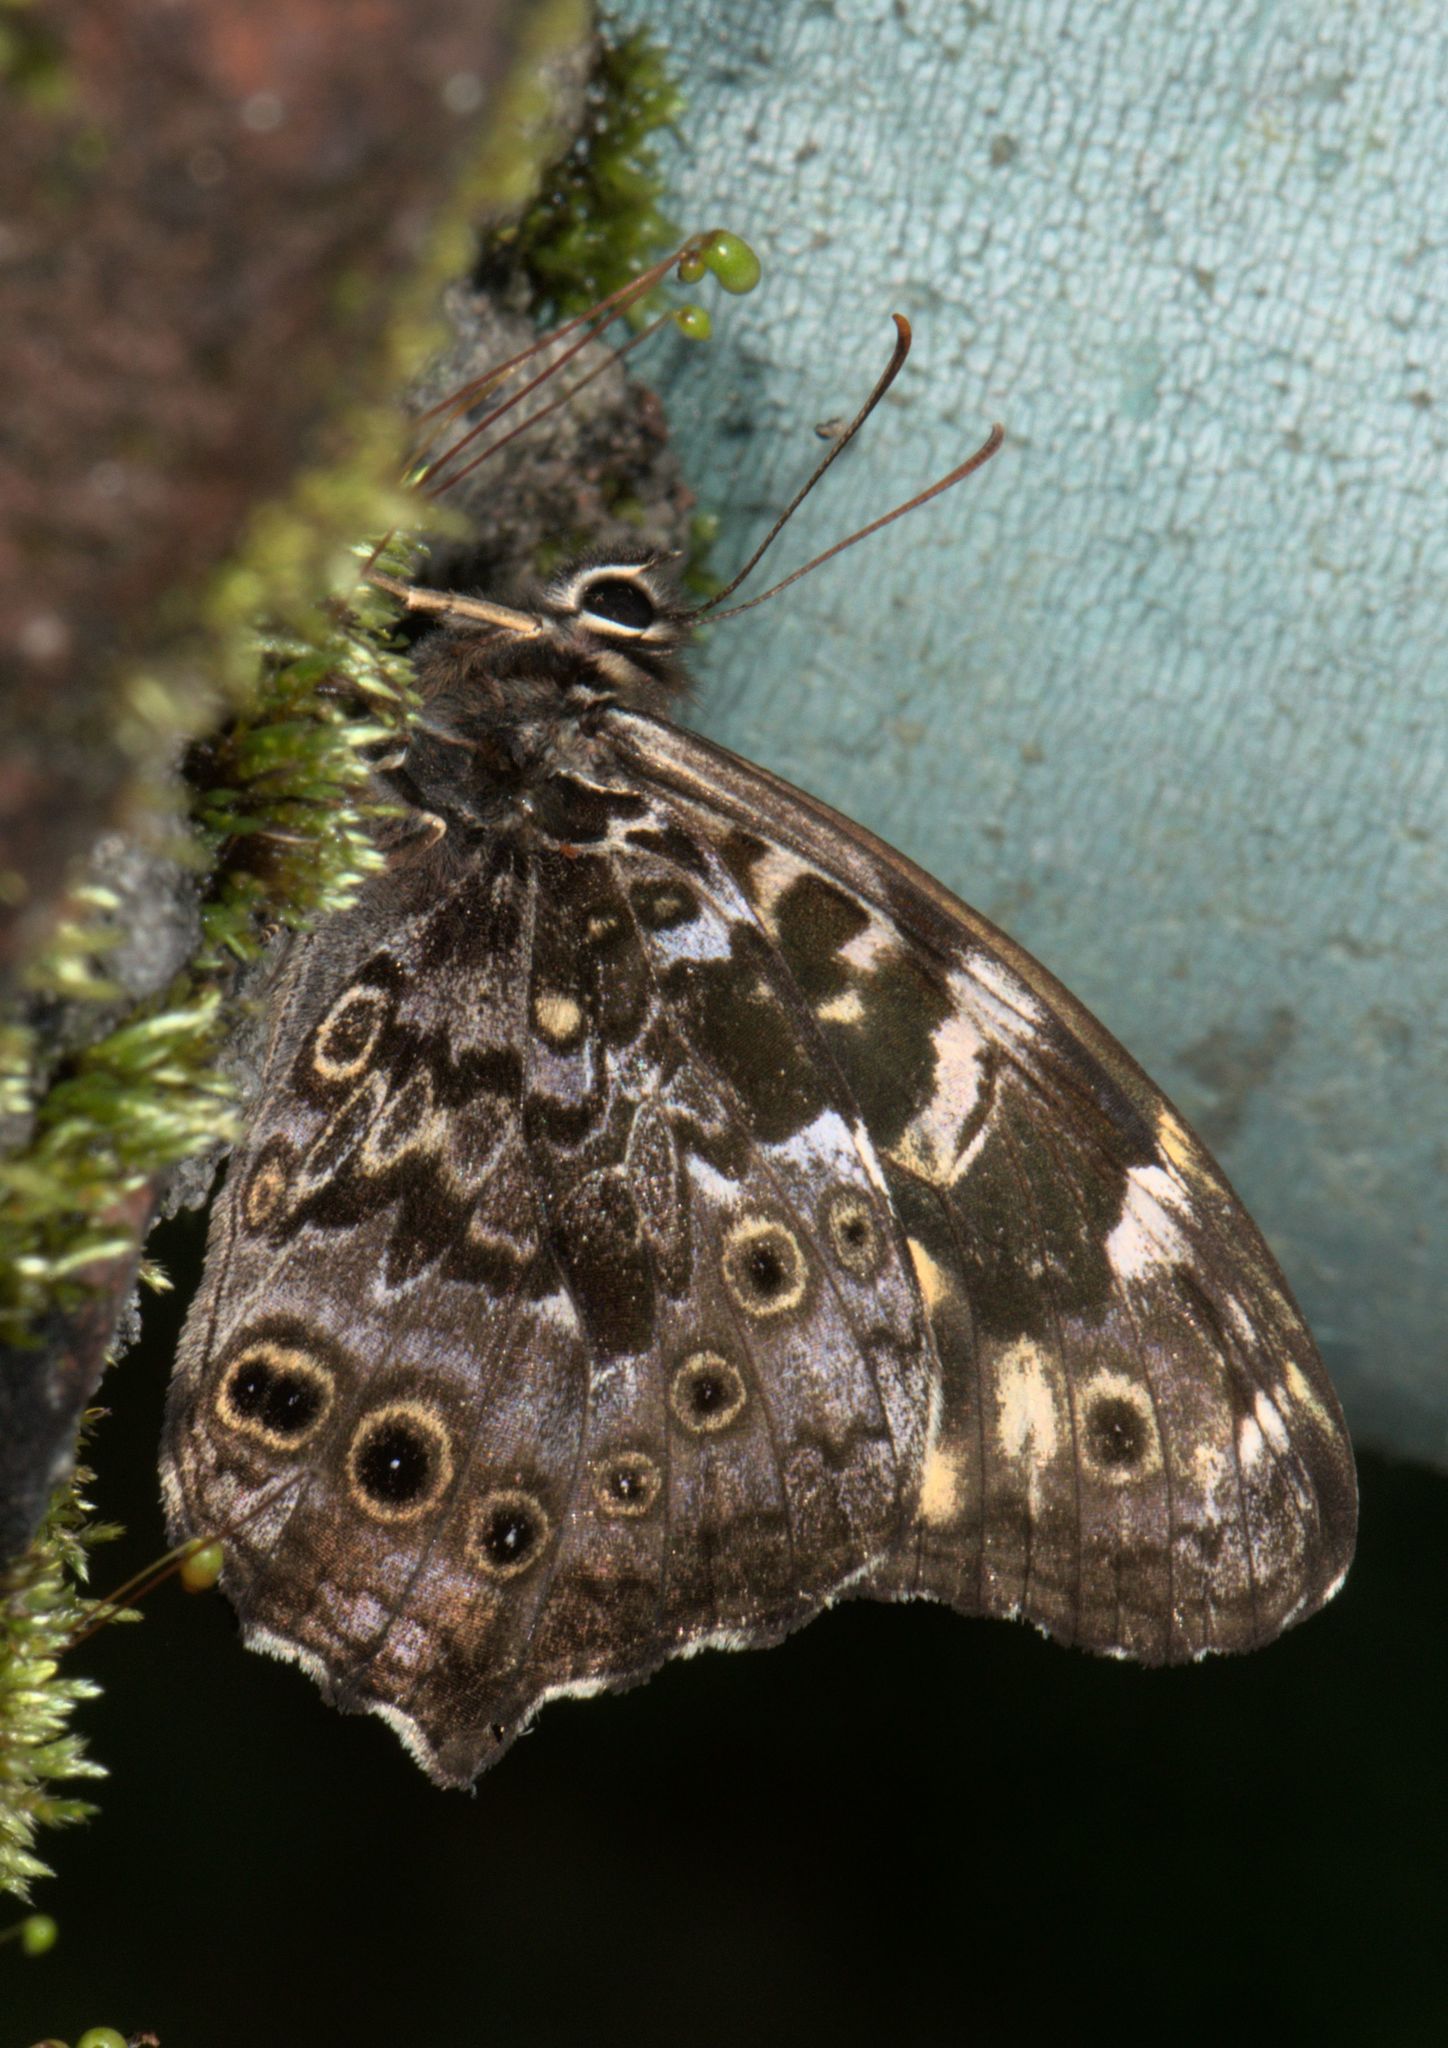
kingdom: Animalia
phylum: Arthropoda
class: Insecta
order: Lepidoptera
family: Nymphalidae
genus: Neope
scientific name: Neope pulaha
